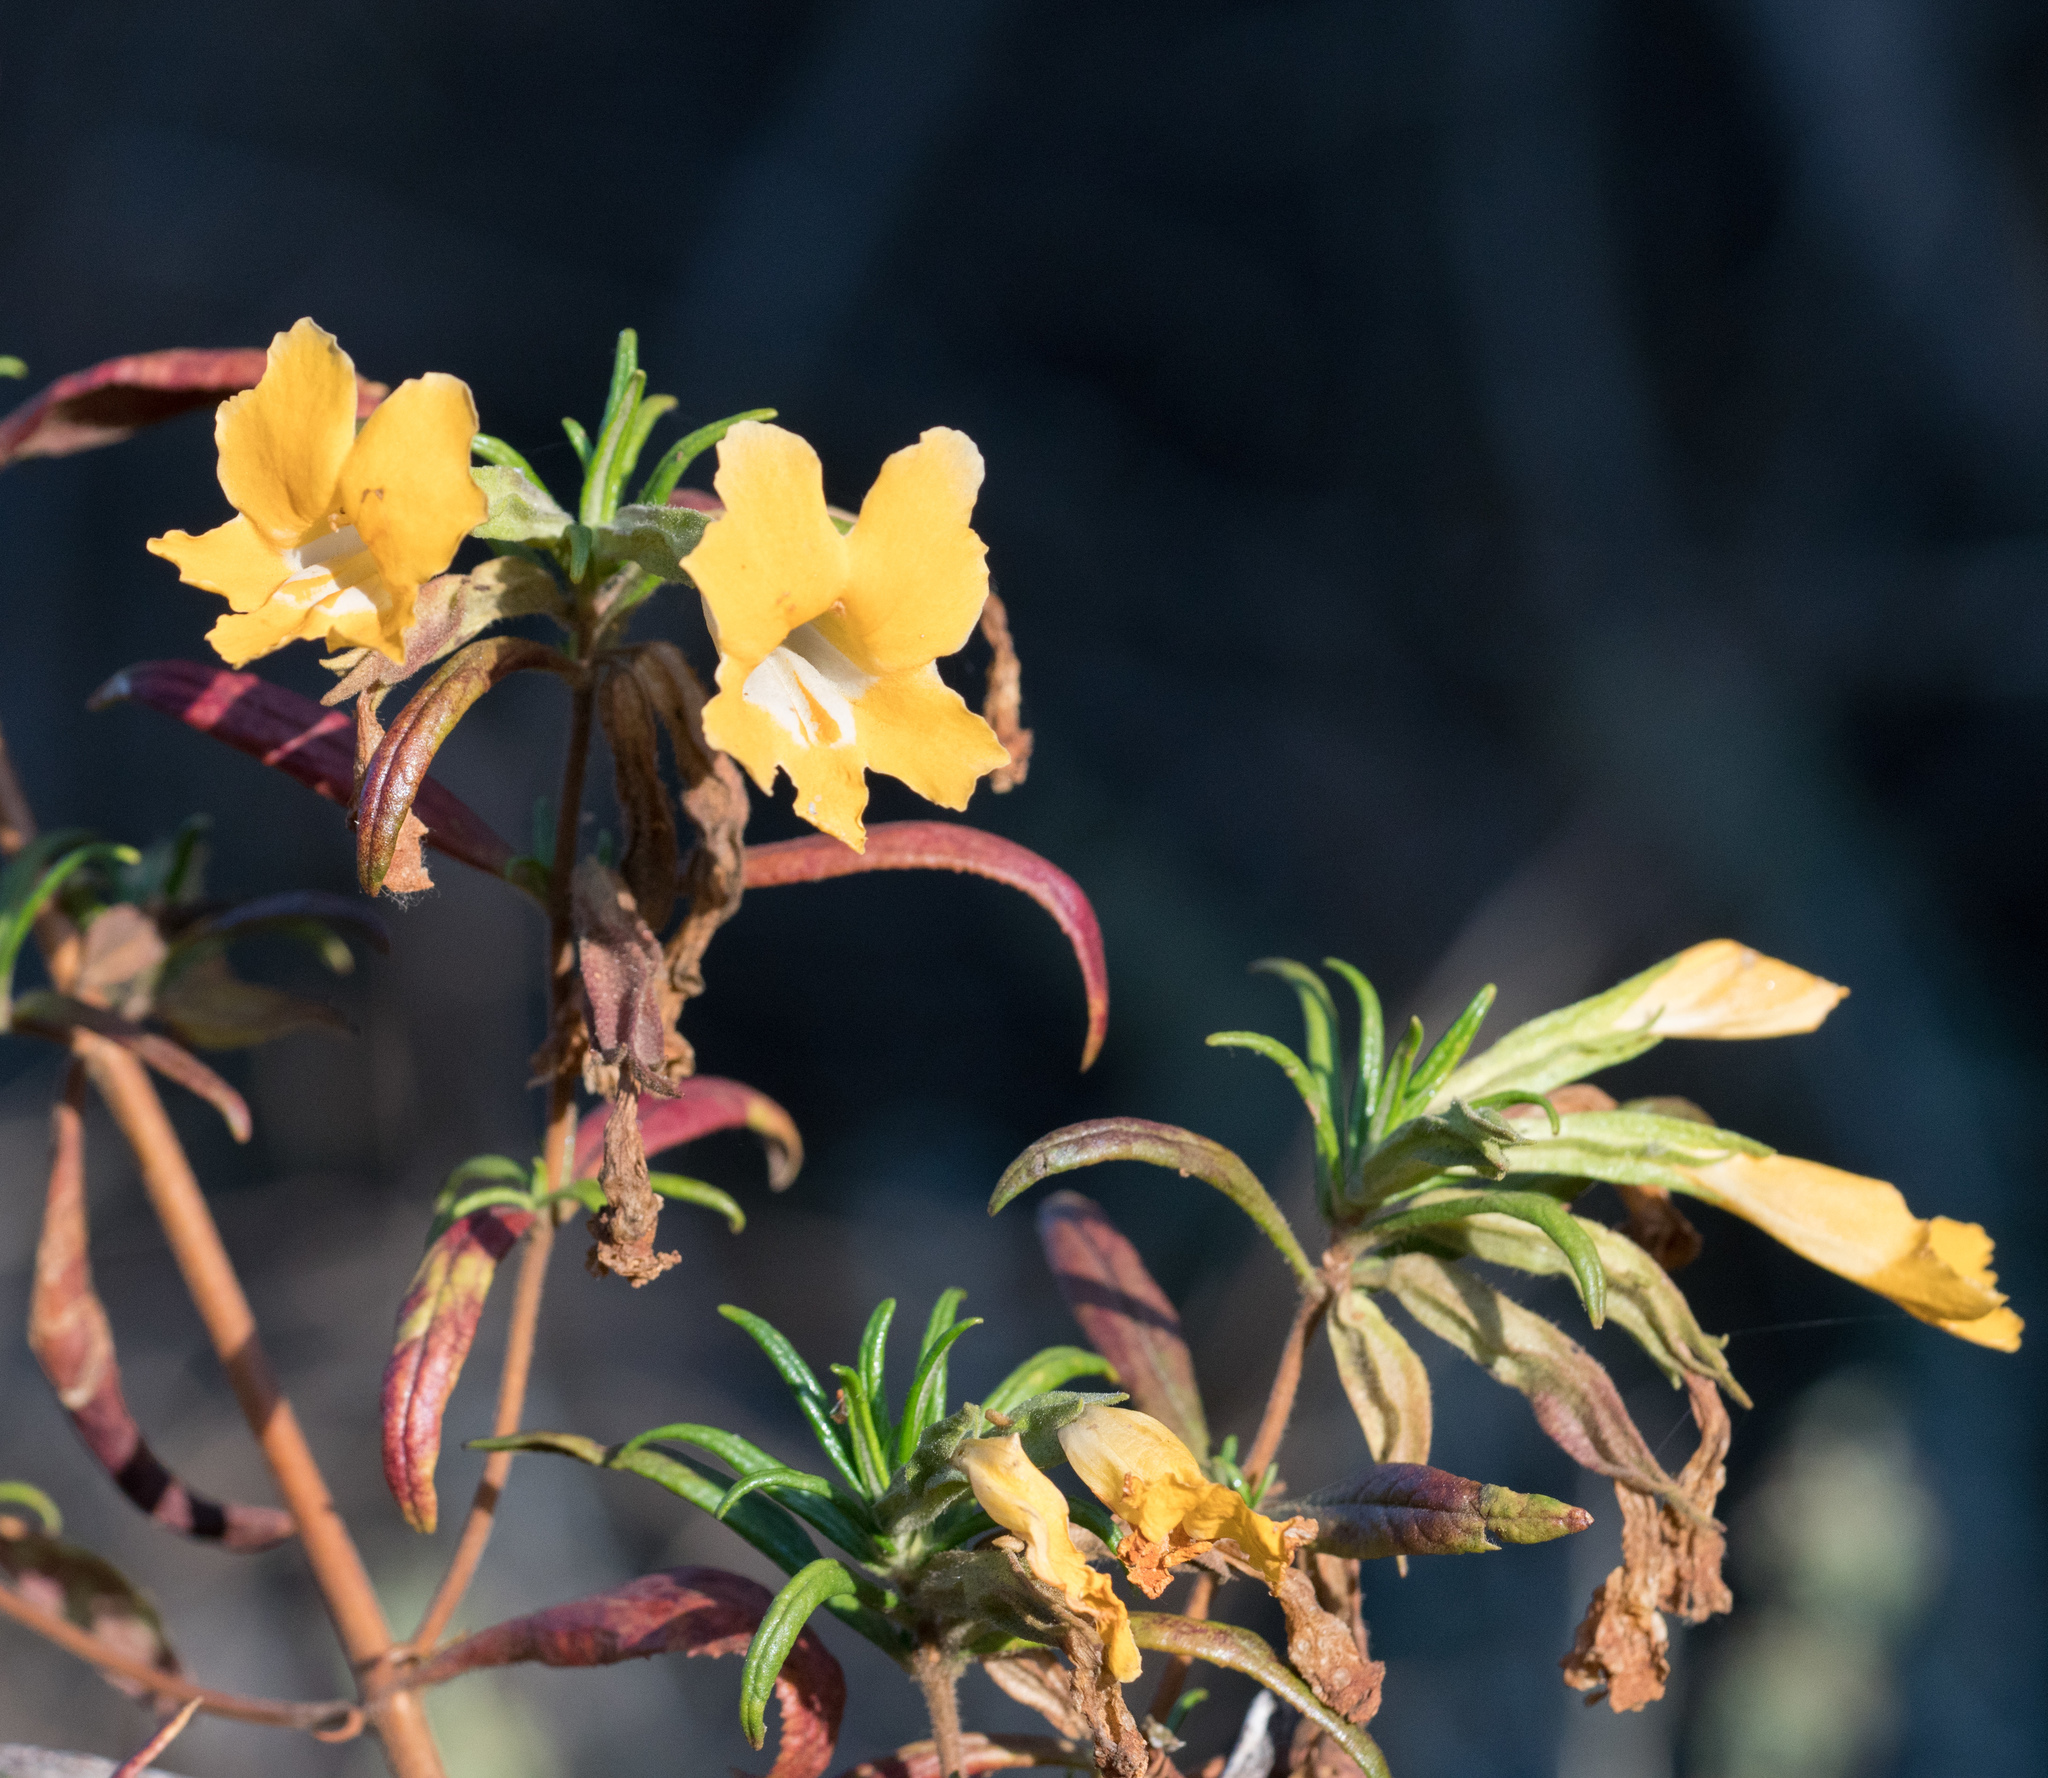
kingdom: Plantae
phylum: Tracheophyta
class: Magnoliopsida
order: Lamiales
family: Phrymaceae
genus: Diplacus
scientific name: Diplacus longiflorus
